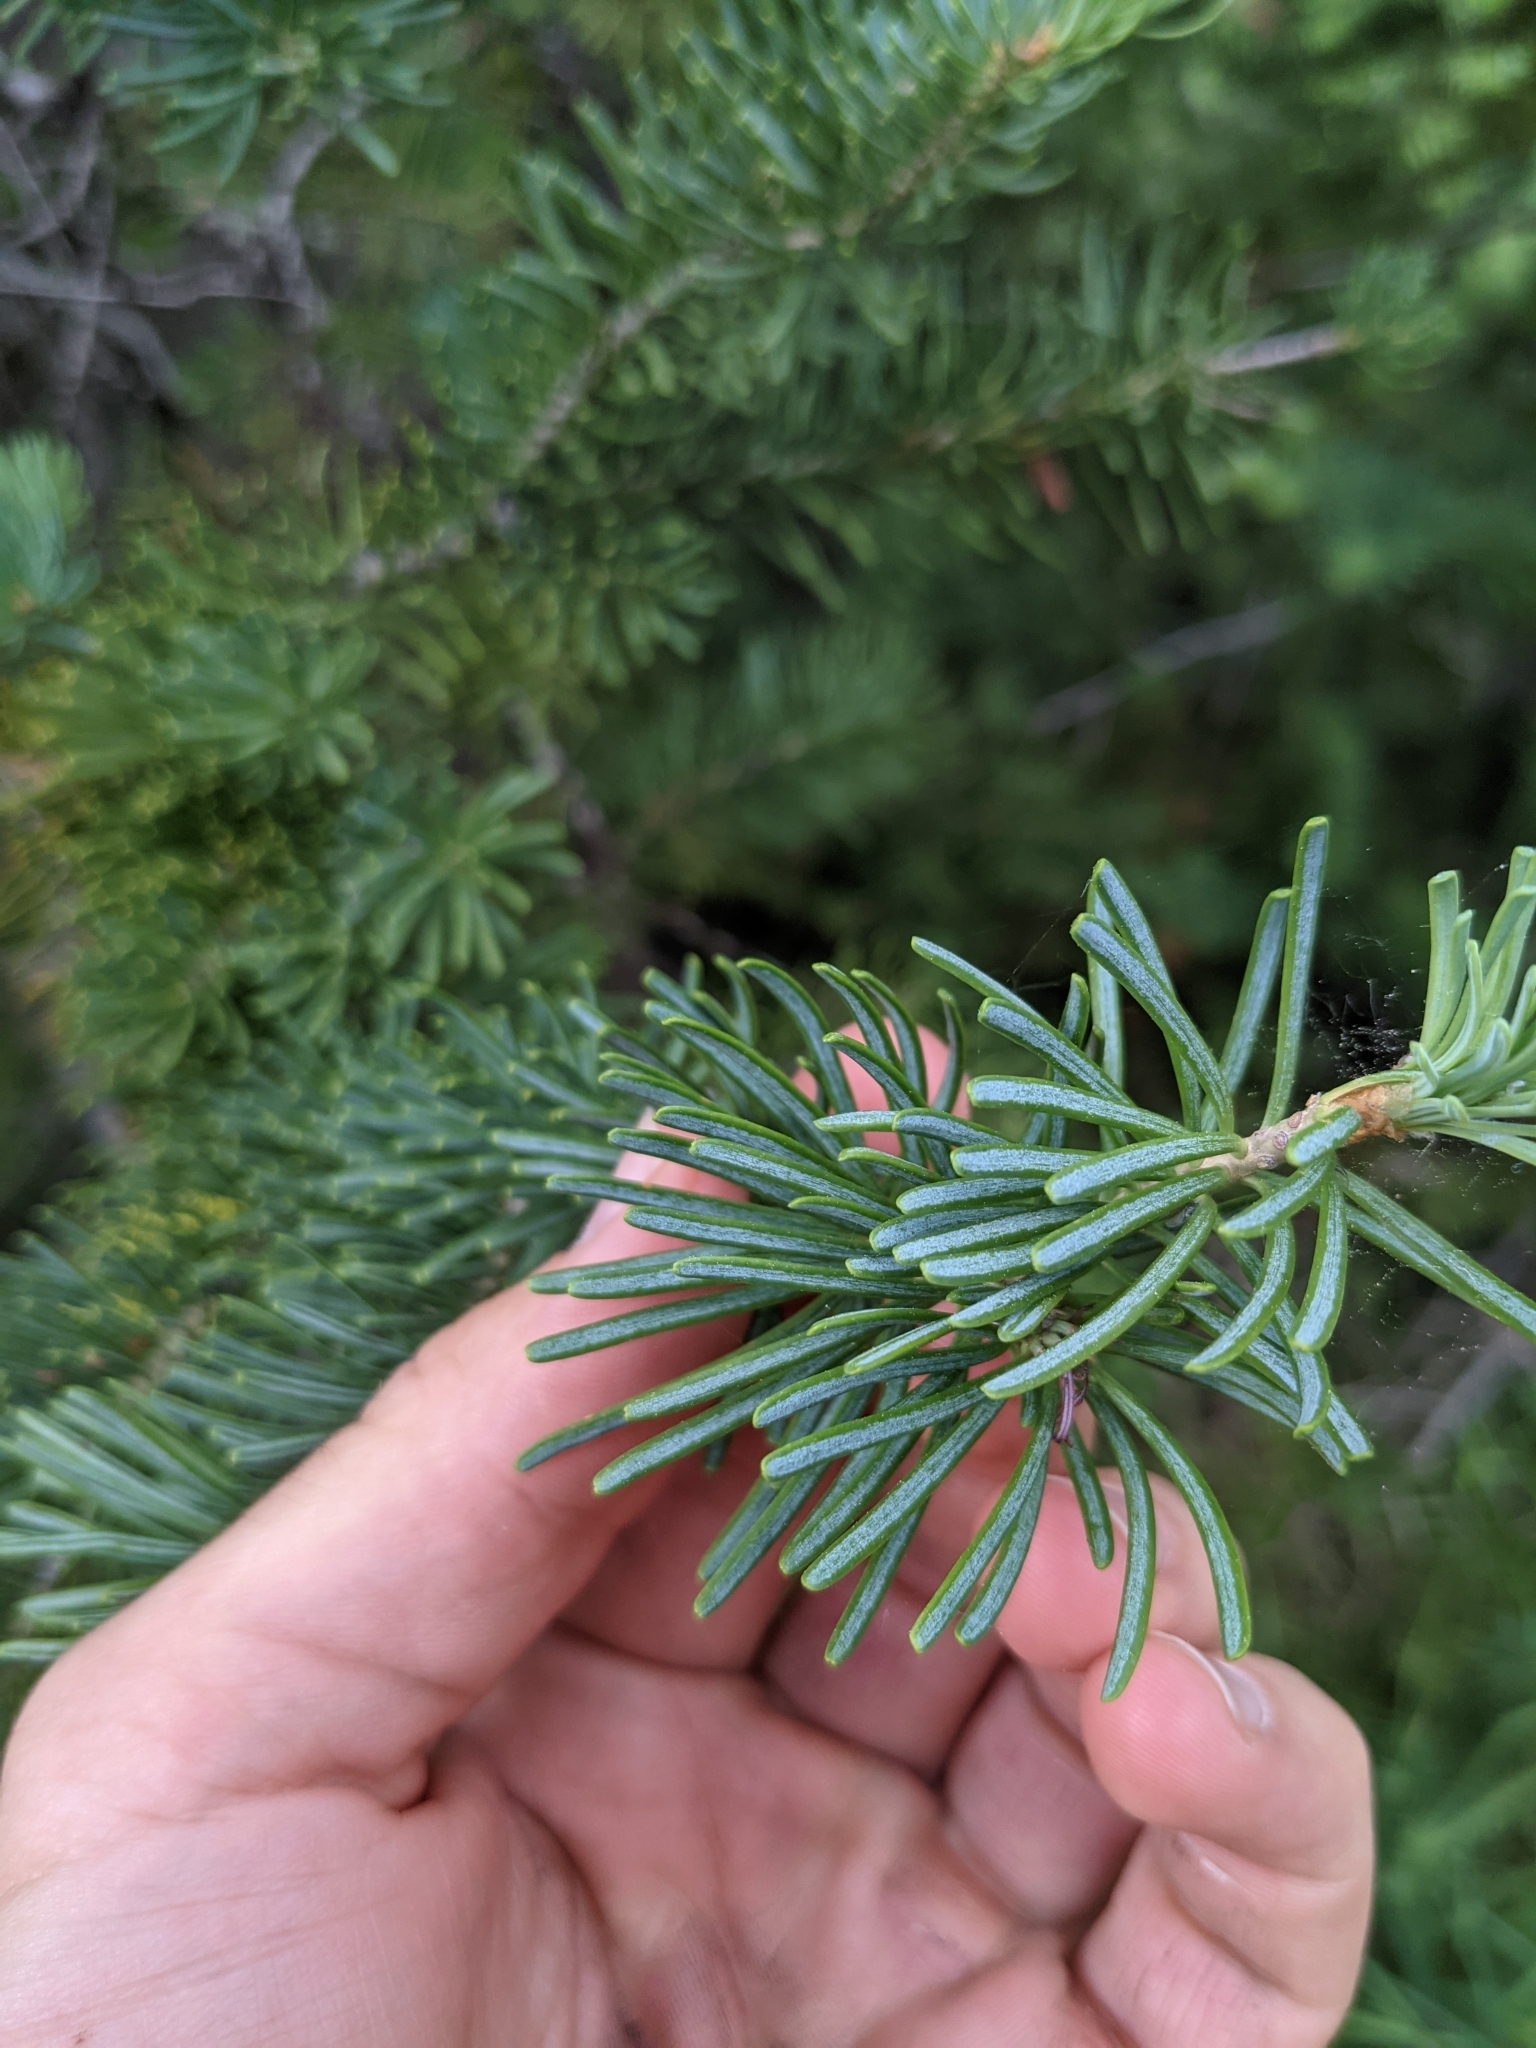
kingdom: Plantae
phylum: Tracheophyta
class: Pinopsida
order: Pinales
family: Pinaceae
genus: Abies
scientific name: Abies lasiocarpa
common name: Subalpine fir
